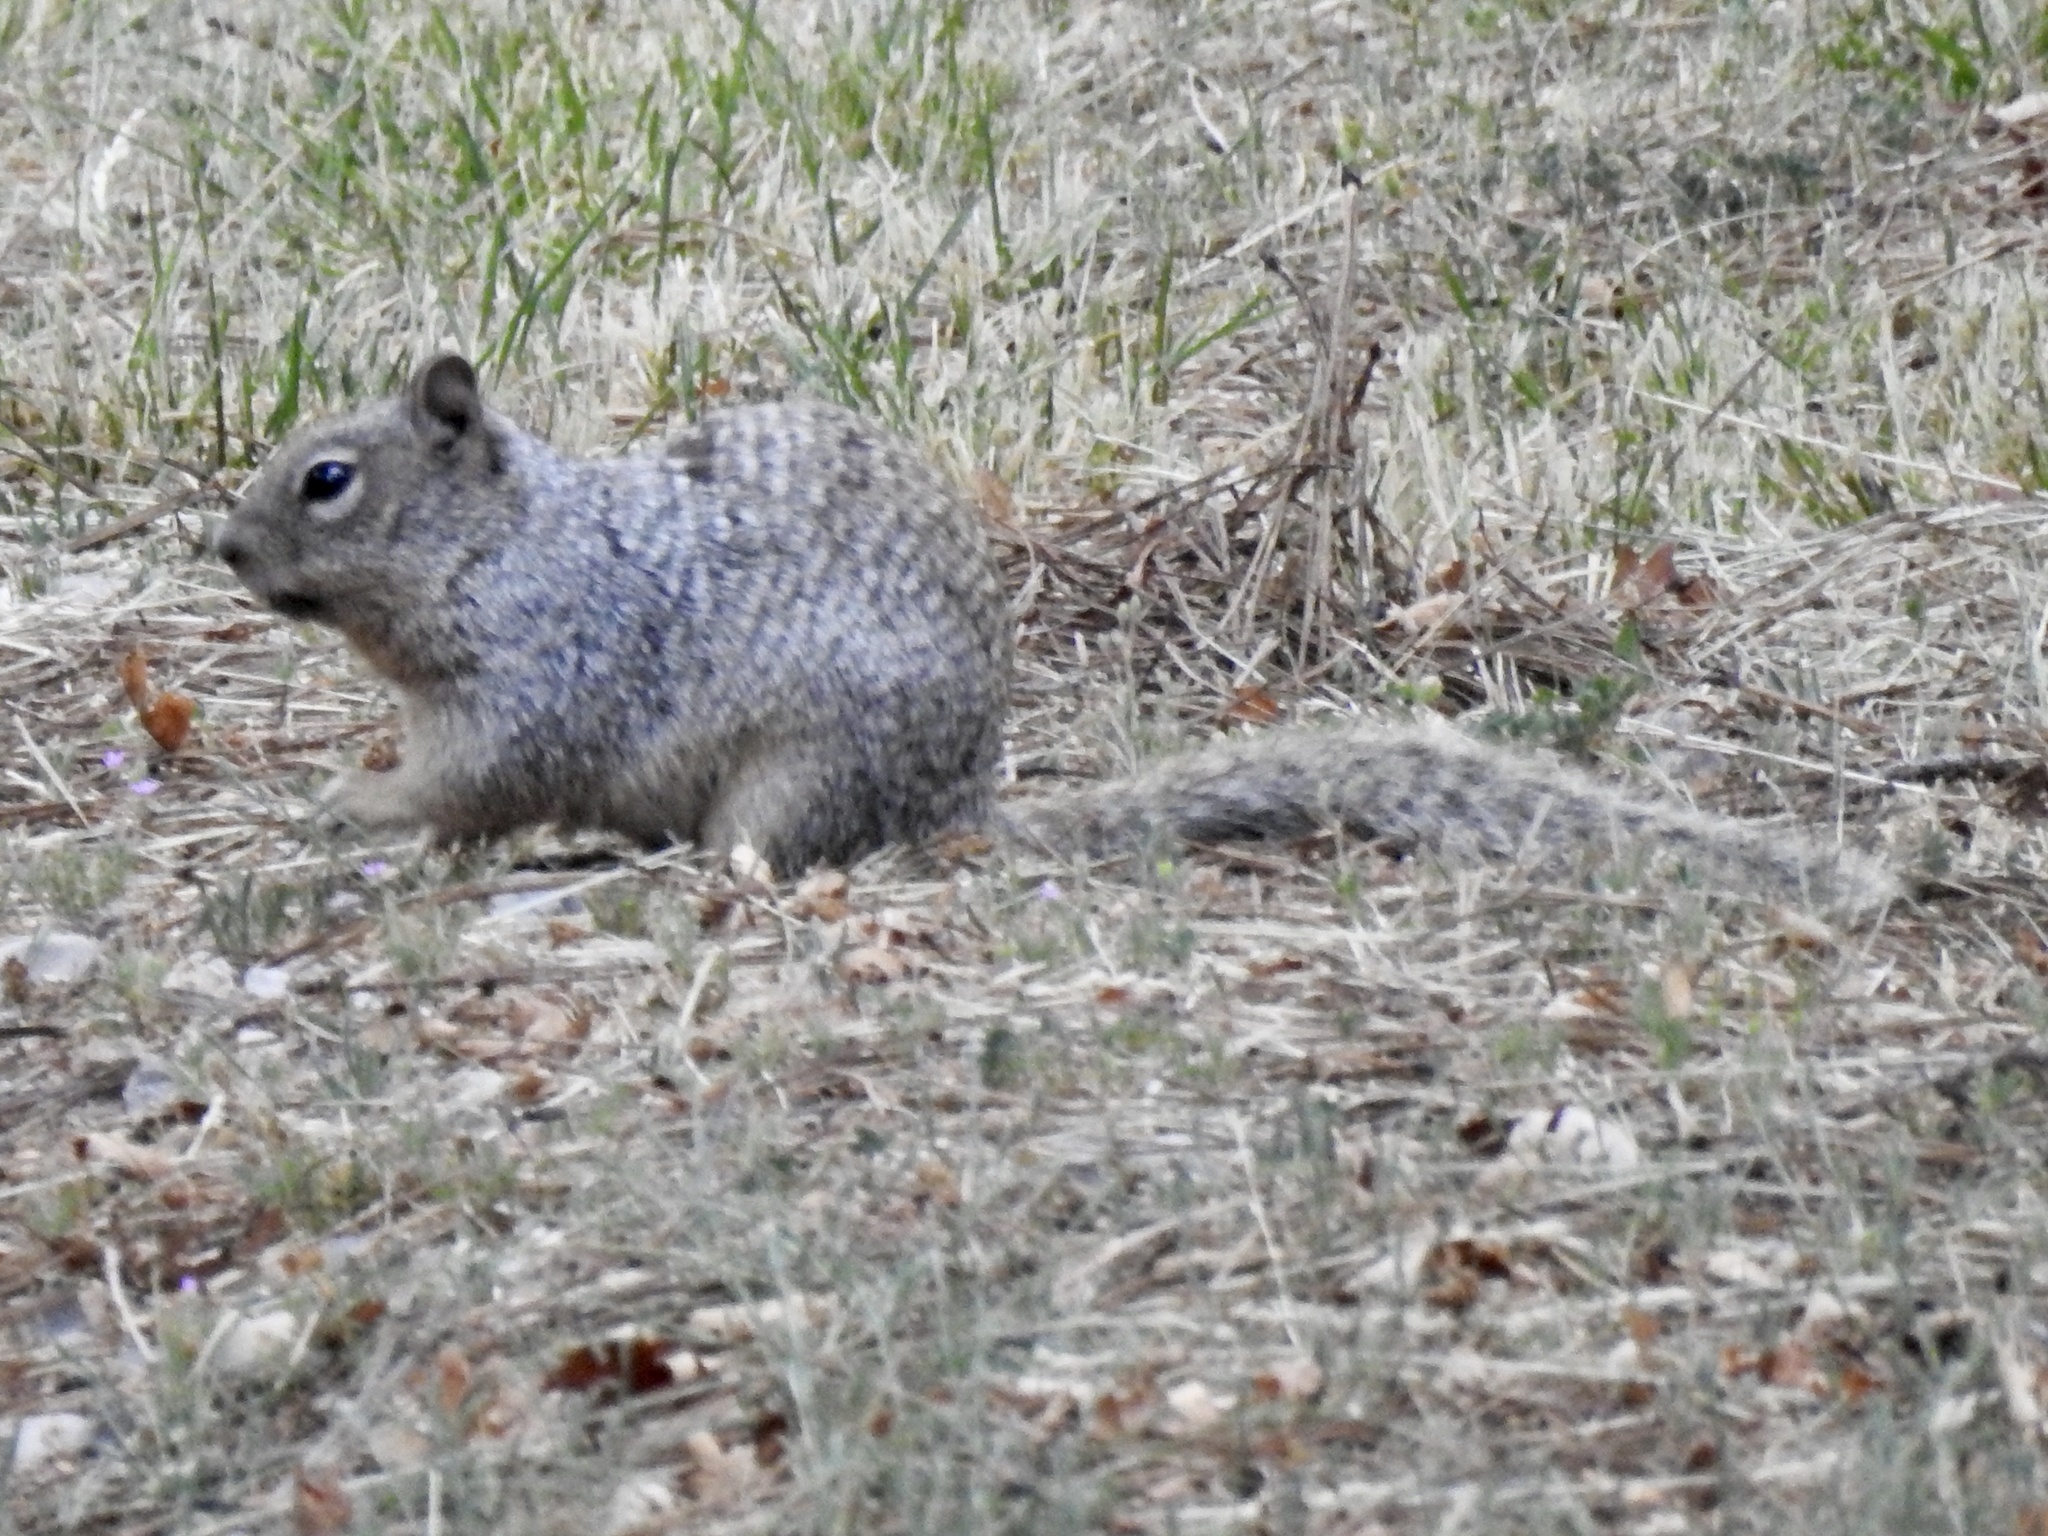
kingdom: Animalia
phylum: Chordata
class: Mammalia
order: Rodentia
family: Sciuridae
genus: Otospermophilus
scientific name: Otospermophilus variegatus
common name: Rock squirrel
